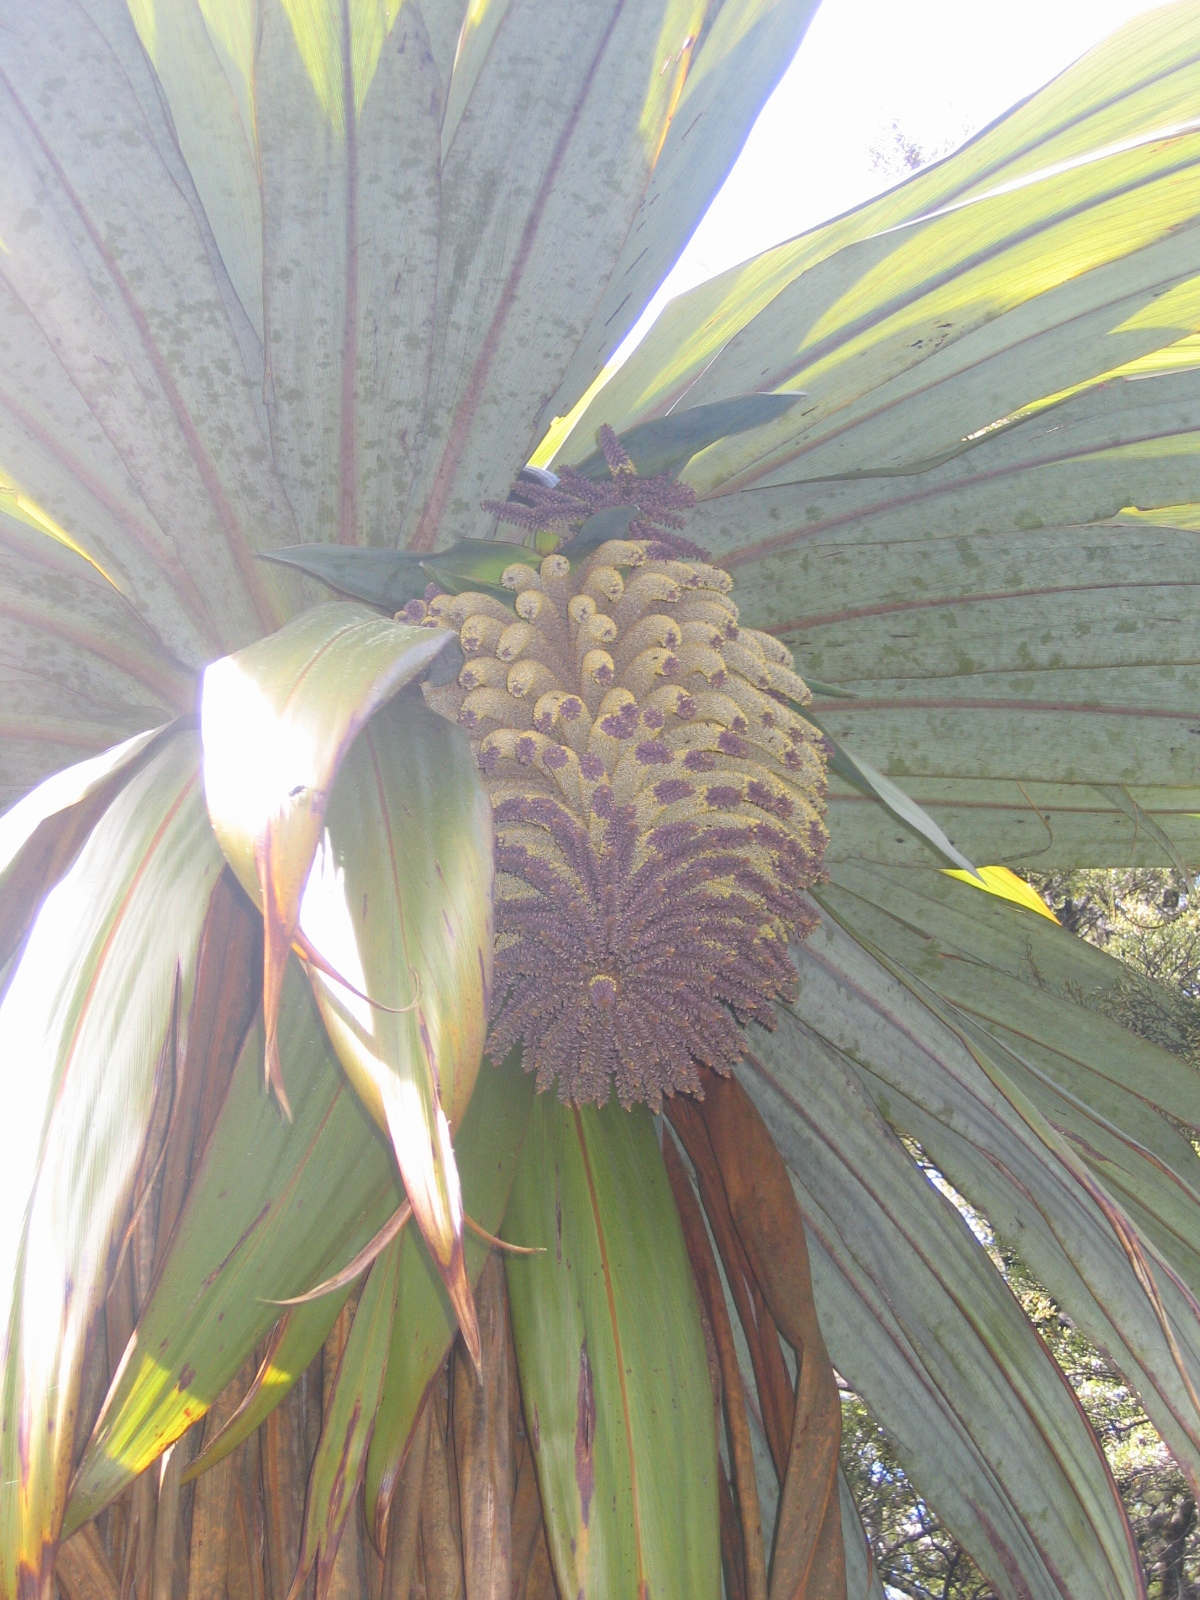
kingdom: Plantae
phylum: Tracheophyta
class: Liliopsida
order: Asparagales
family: Asparagaceae
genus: Cordyline
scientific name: Cordyline indivisa
